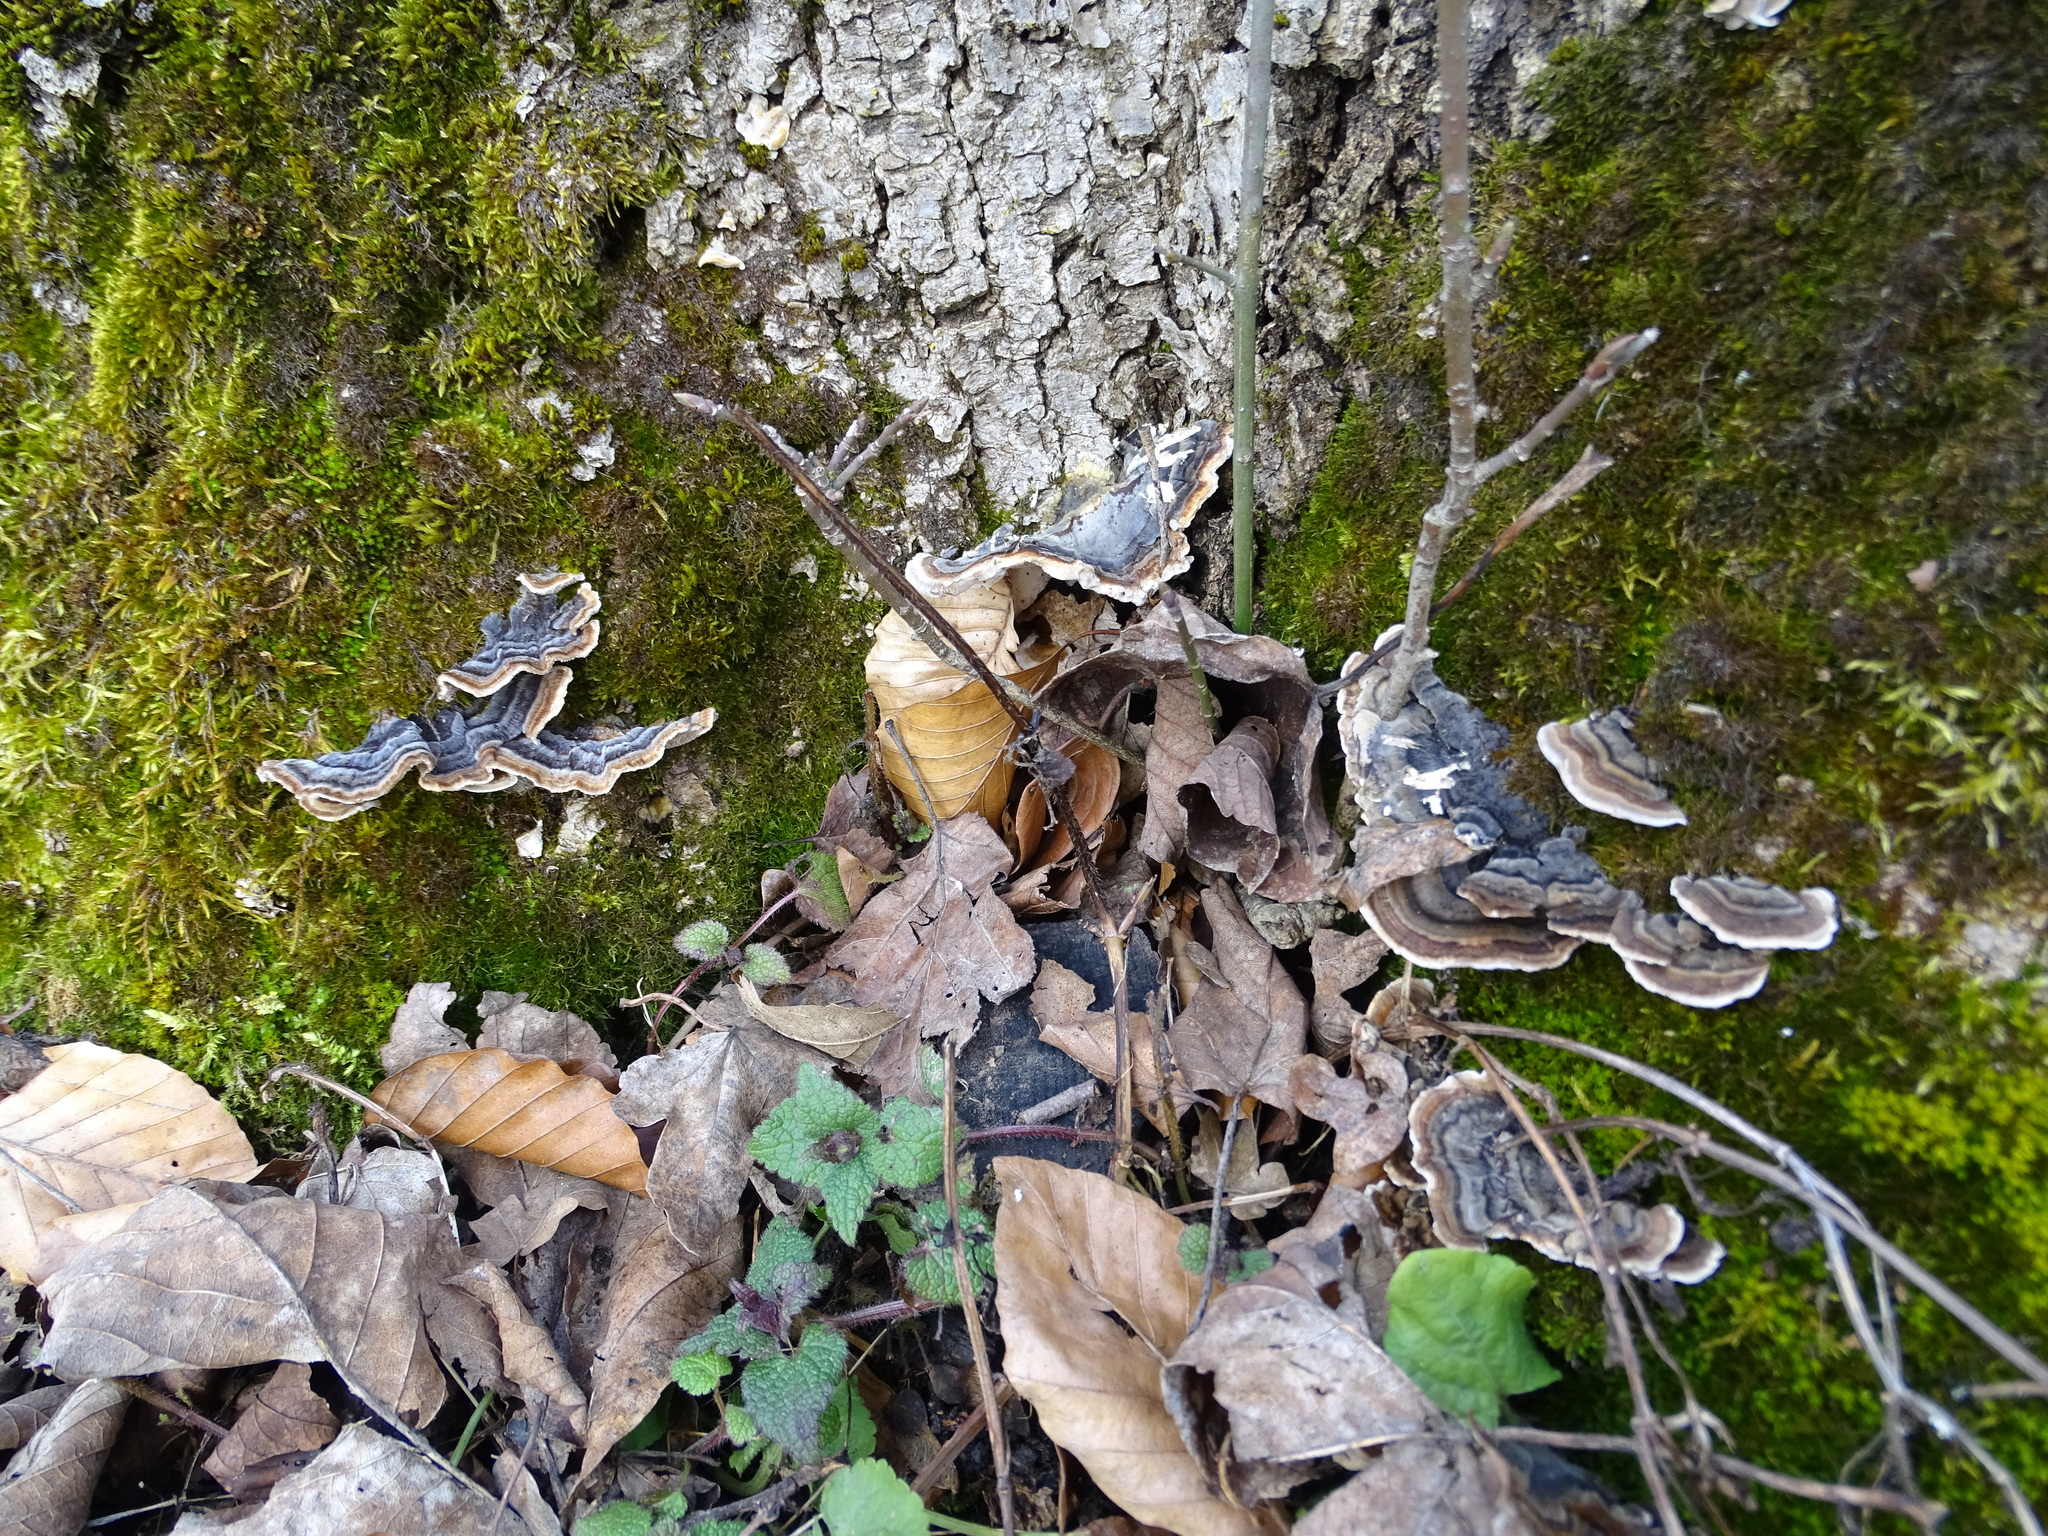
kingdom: Fungi
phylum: Basidiomycota
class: Agaricomycetes
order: Polyporales
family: Polyporaceae
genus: Trametes
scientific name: Trametes versicolor
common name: Turkeytail
